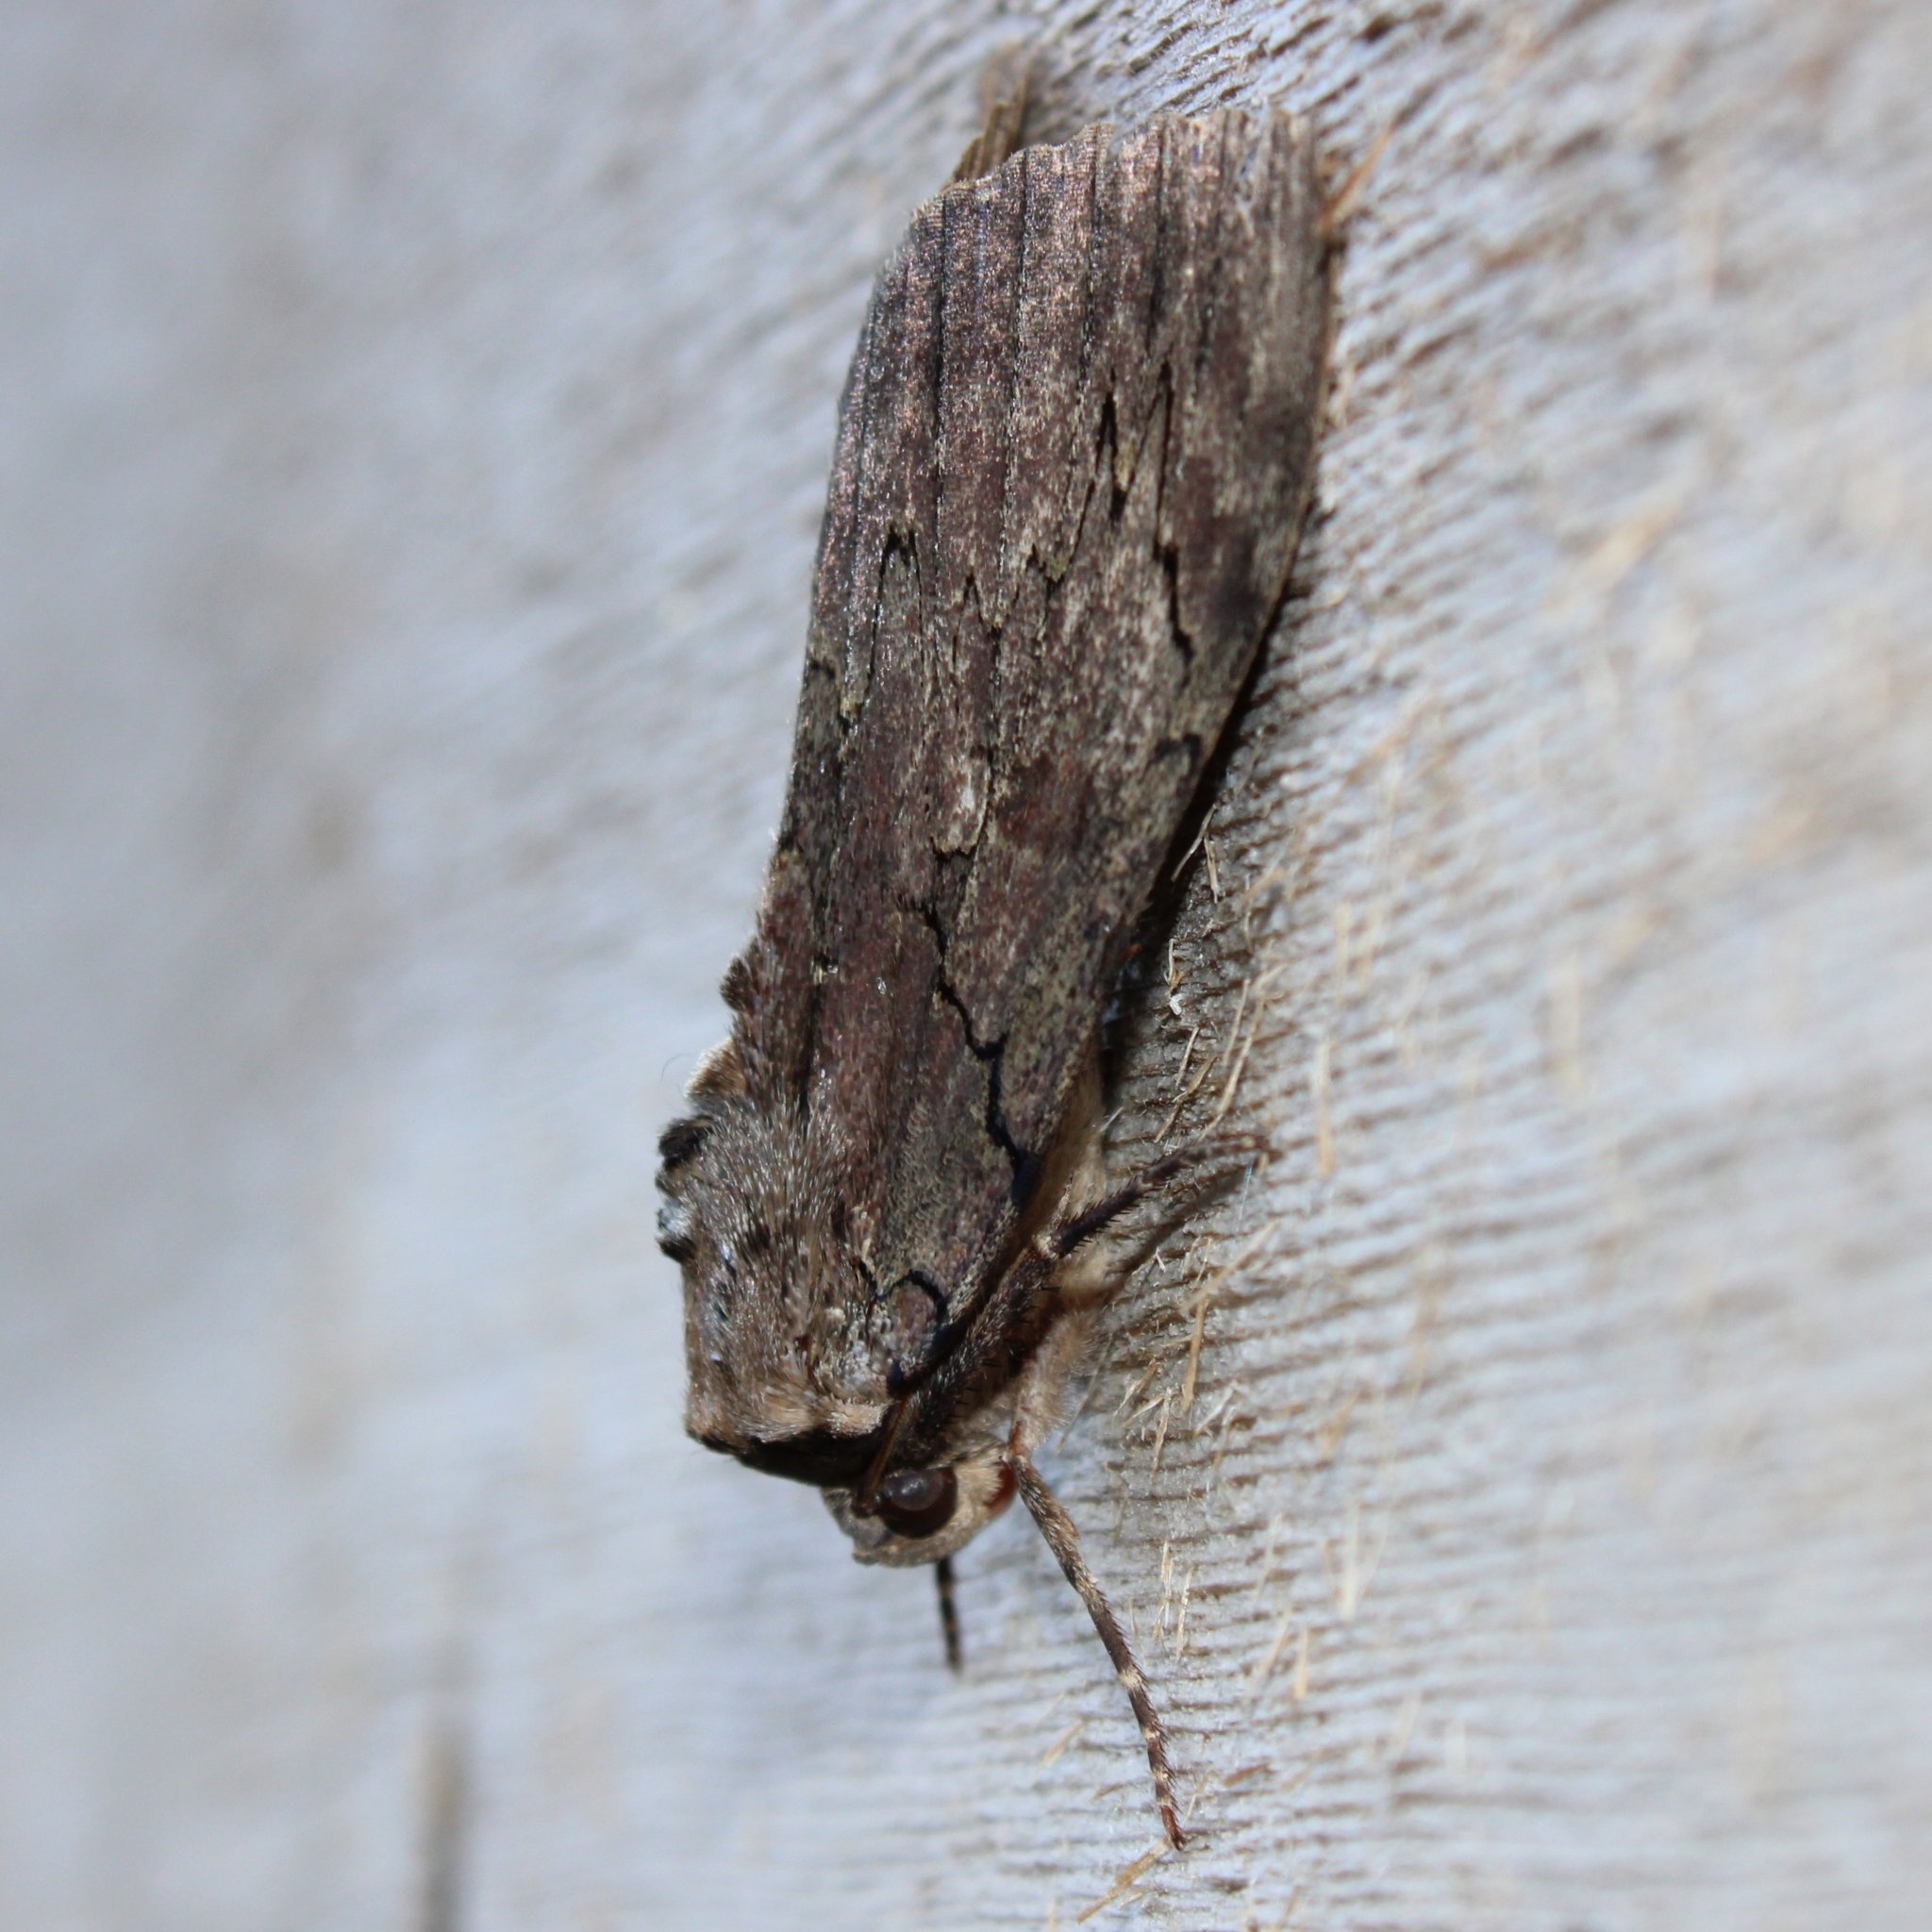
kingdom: Animalia
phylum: Arthropoda
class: Insecta
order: Lepidoptera
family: Erebidae
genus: Catocala
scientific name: Catocala cara
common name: Darling underwing
